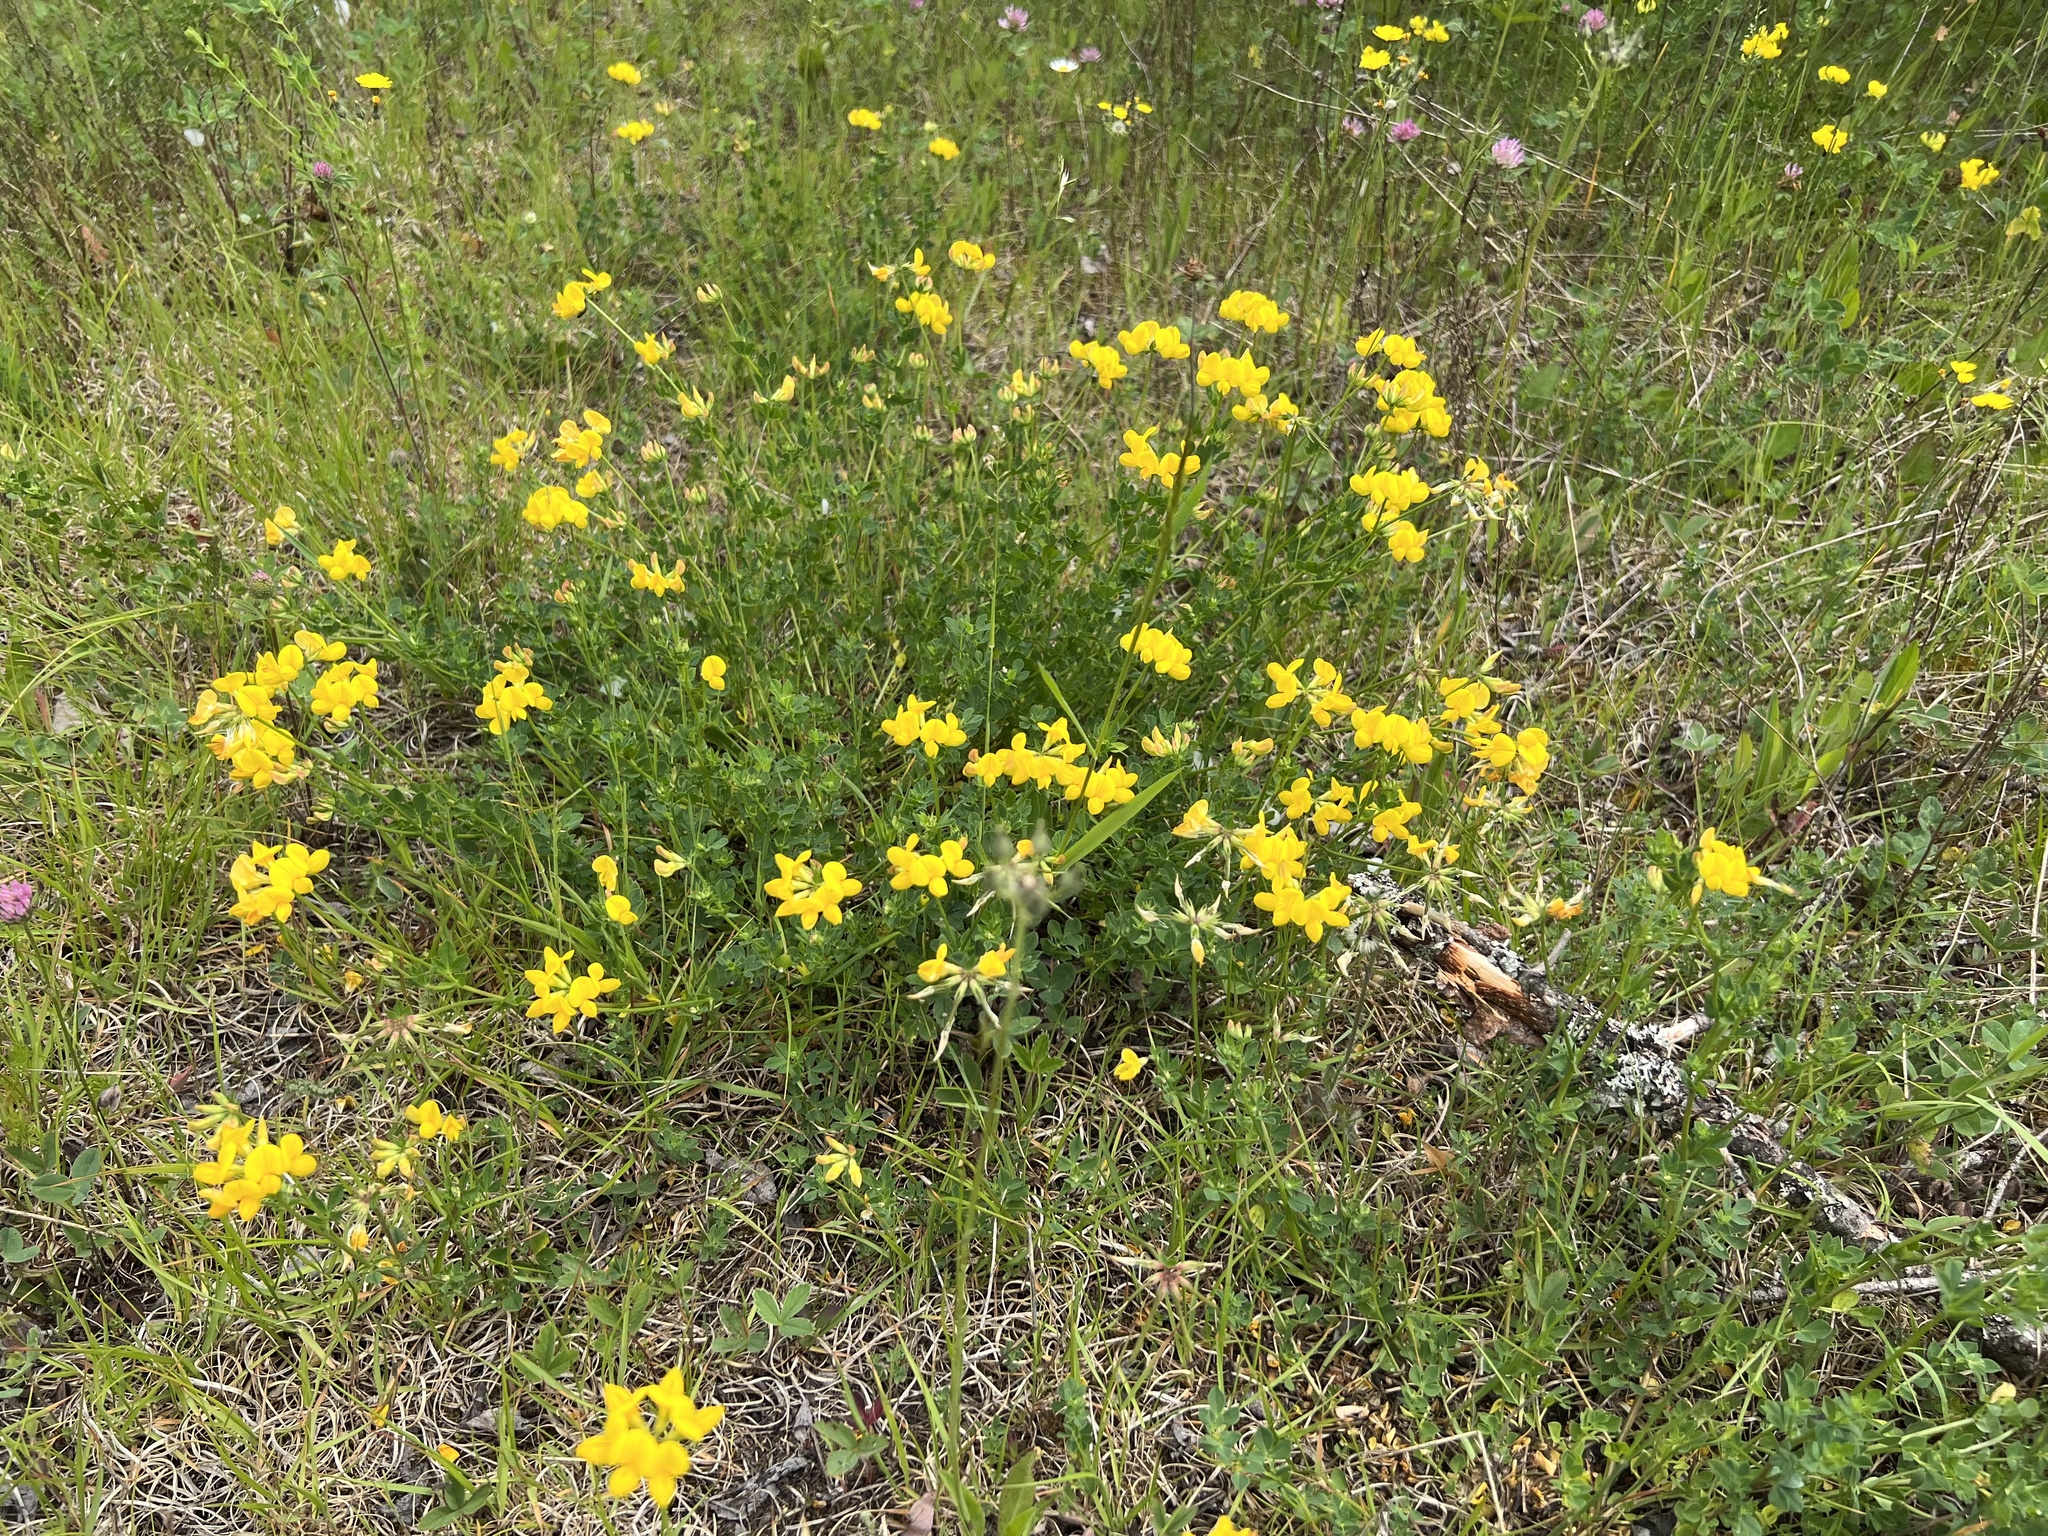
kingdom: Plantae
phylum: Tracheophyta
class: Magnoliopsida
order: Fabales
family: Fabaceae
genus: Lotus
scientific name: Lotus corniculatus
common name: Common bird's-foot-trefoil
